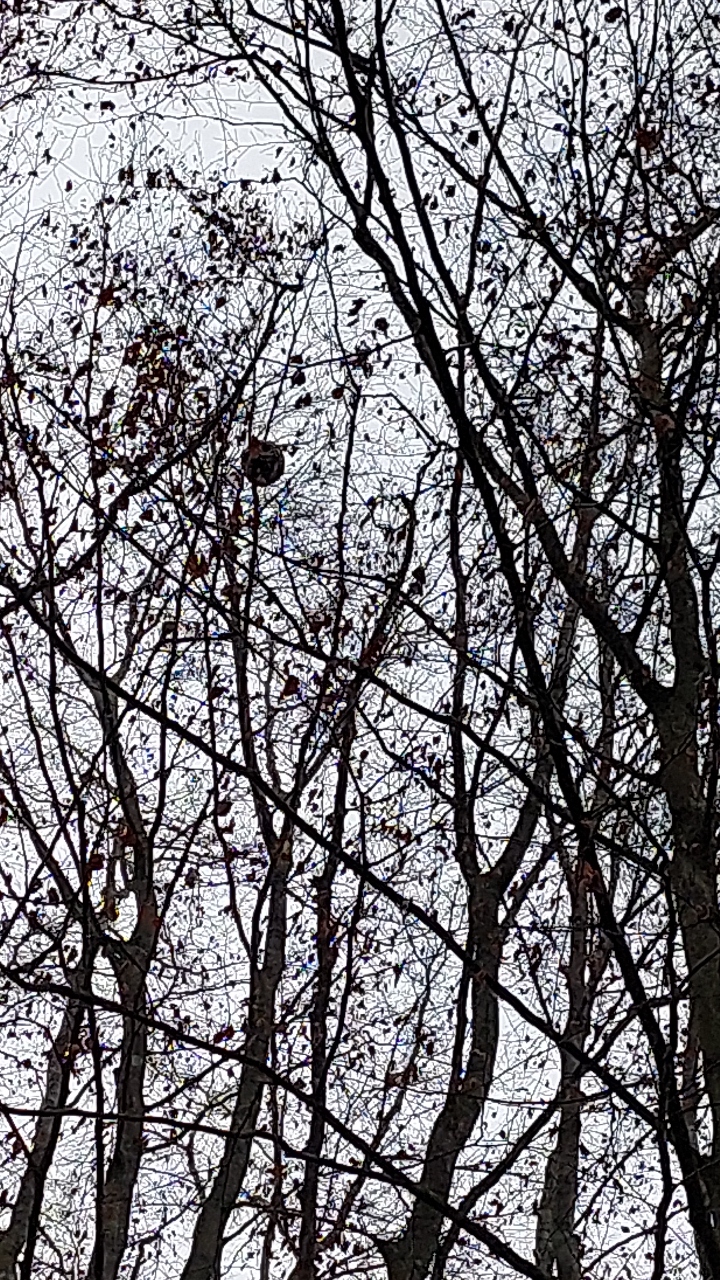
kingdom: Animalia
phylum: Arthropoda
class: Insecta
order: Hymenoptera
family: Vespidae
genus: Vespa
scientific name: Vespa velutina
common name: Asian hornet
